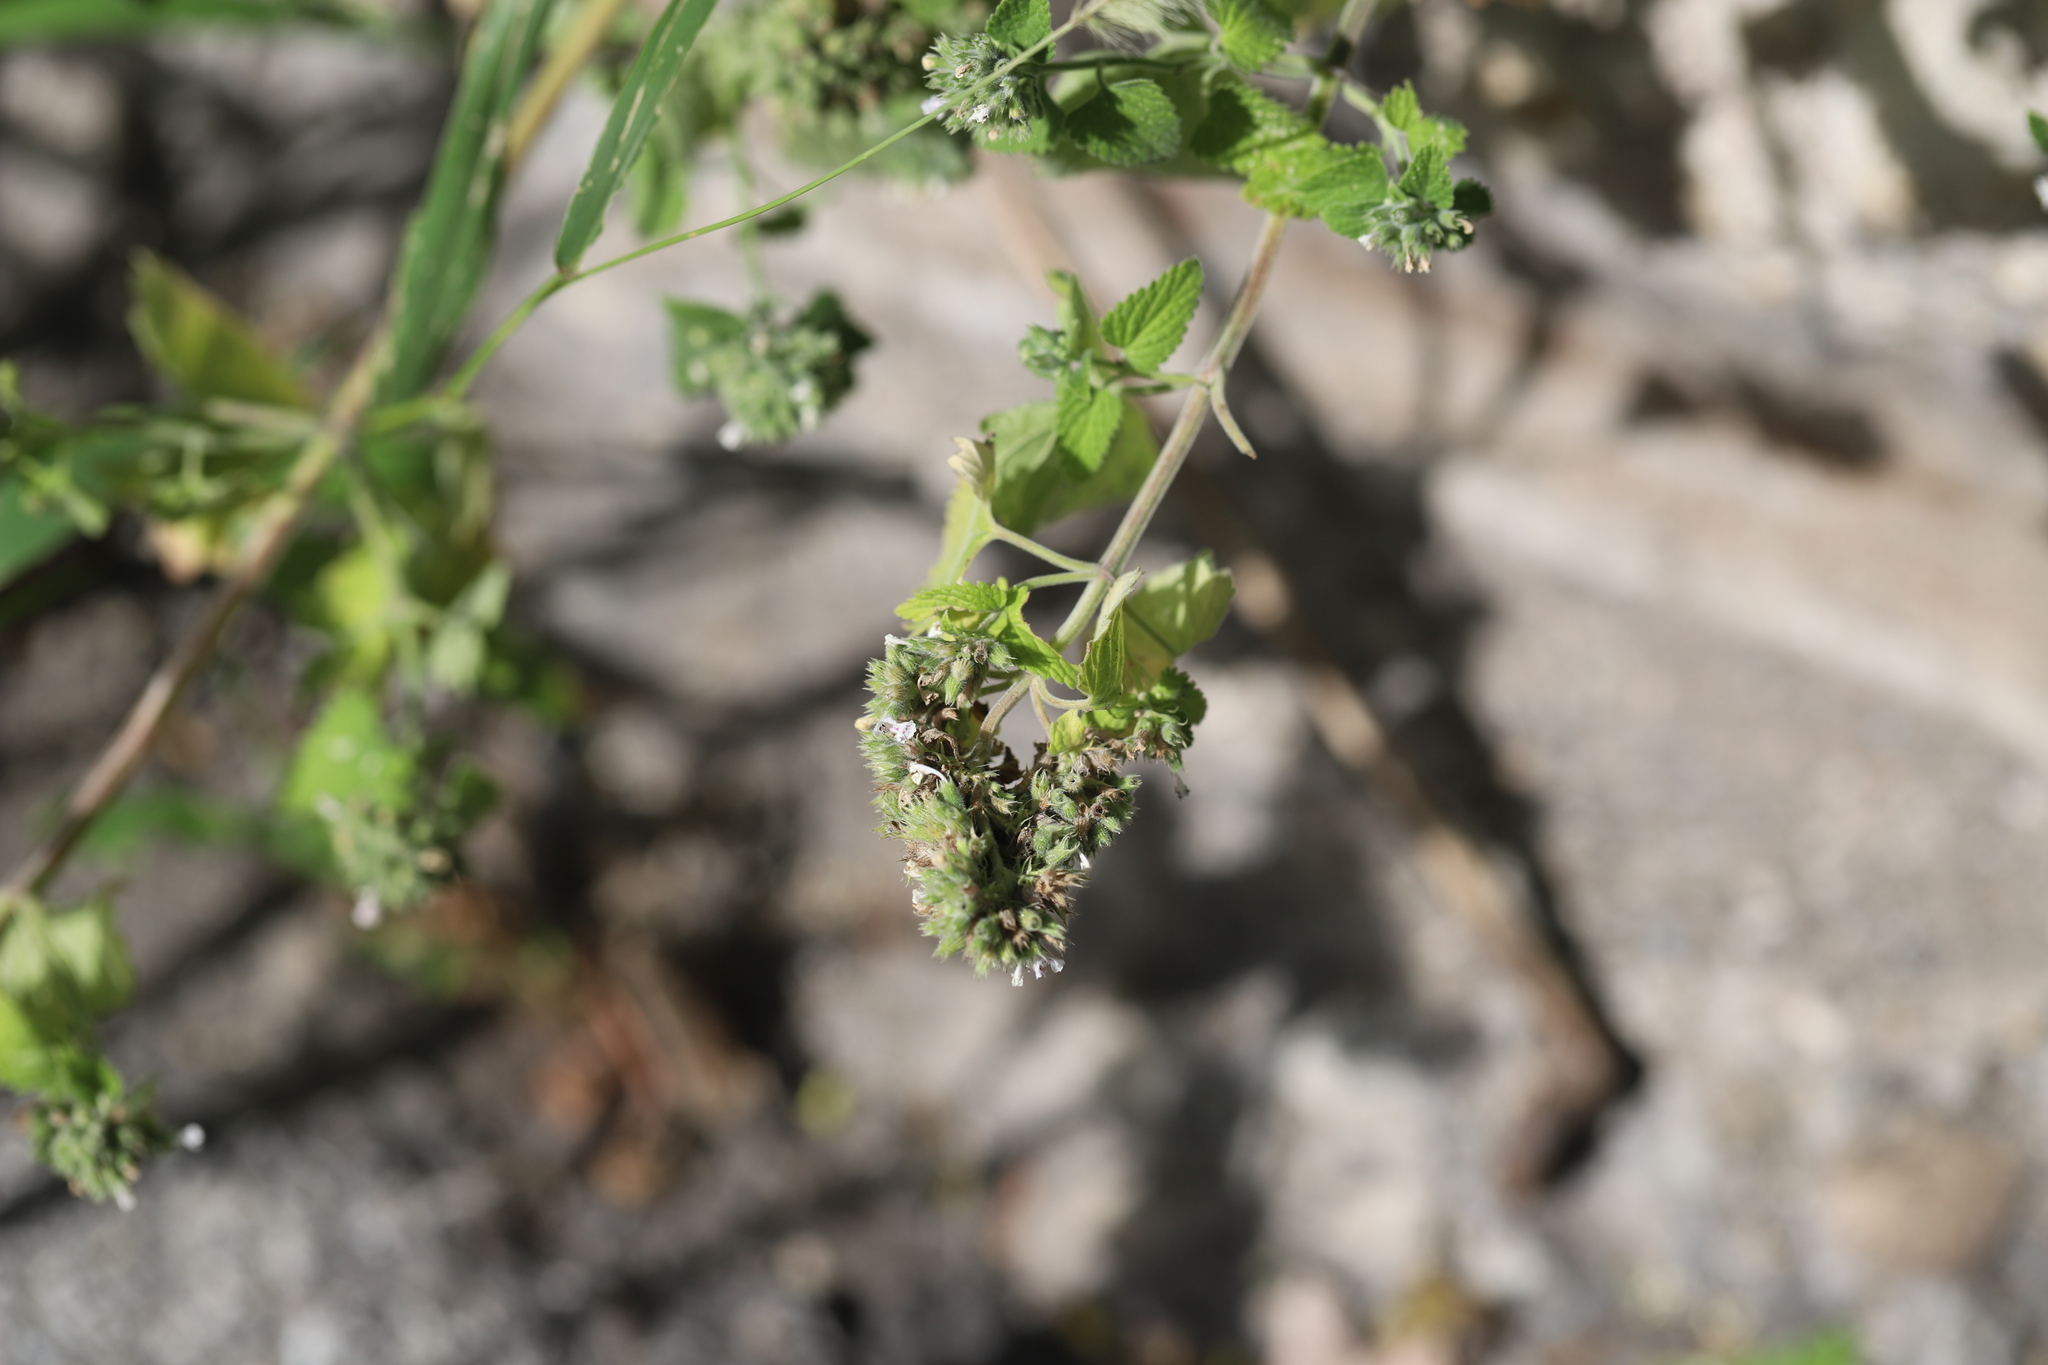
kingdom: Plantae
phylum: Tracheophyta
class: Magnoliopsida
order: Lamiales
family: Lamiaceae
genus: Nepeta
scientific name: Nepeta cataria
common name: Catnip
